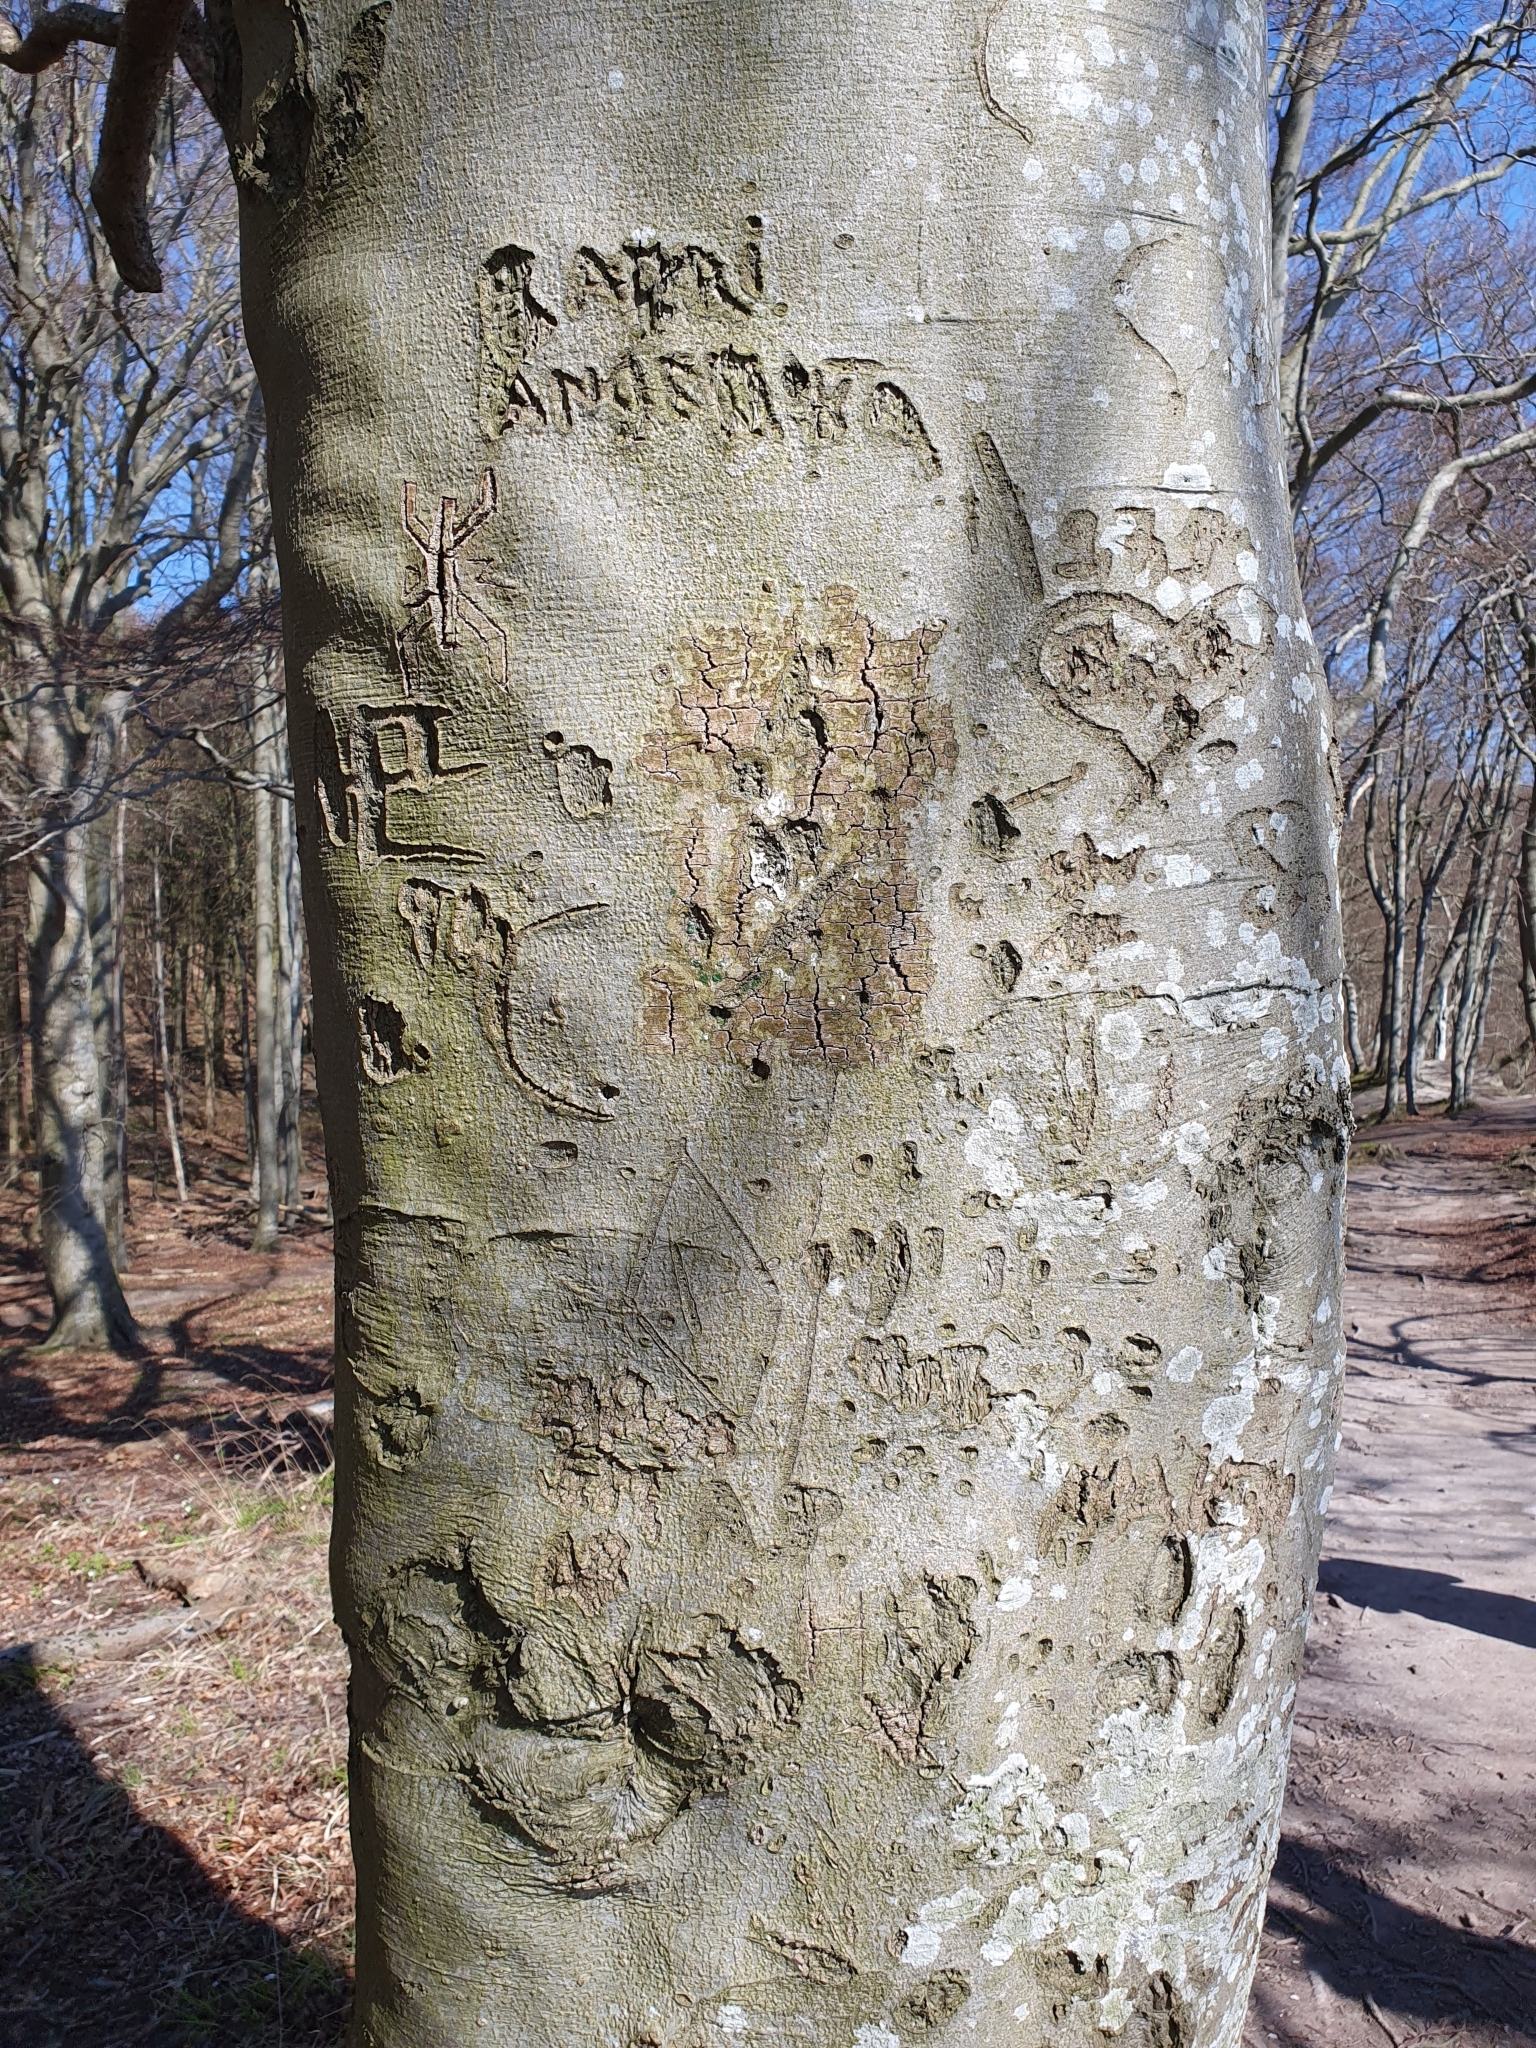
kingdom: Plantae
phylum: Tracheophyta
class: Magnoliopsida
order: Fagales
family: Fagaceae
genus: Fagus
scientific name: Fagus sylvatica
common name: Beech
